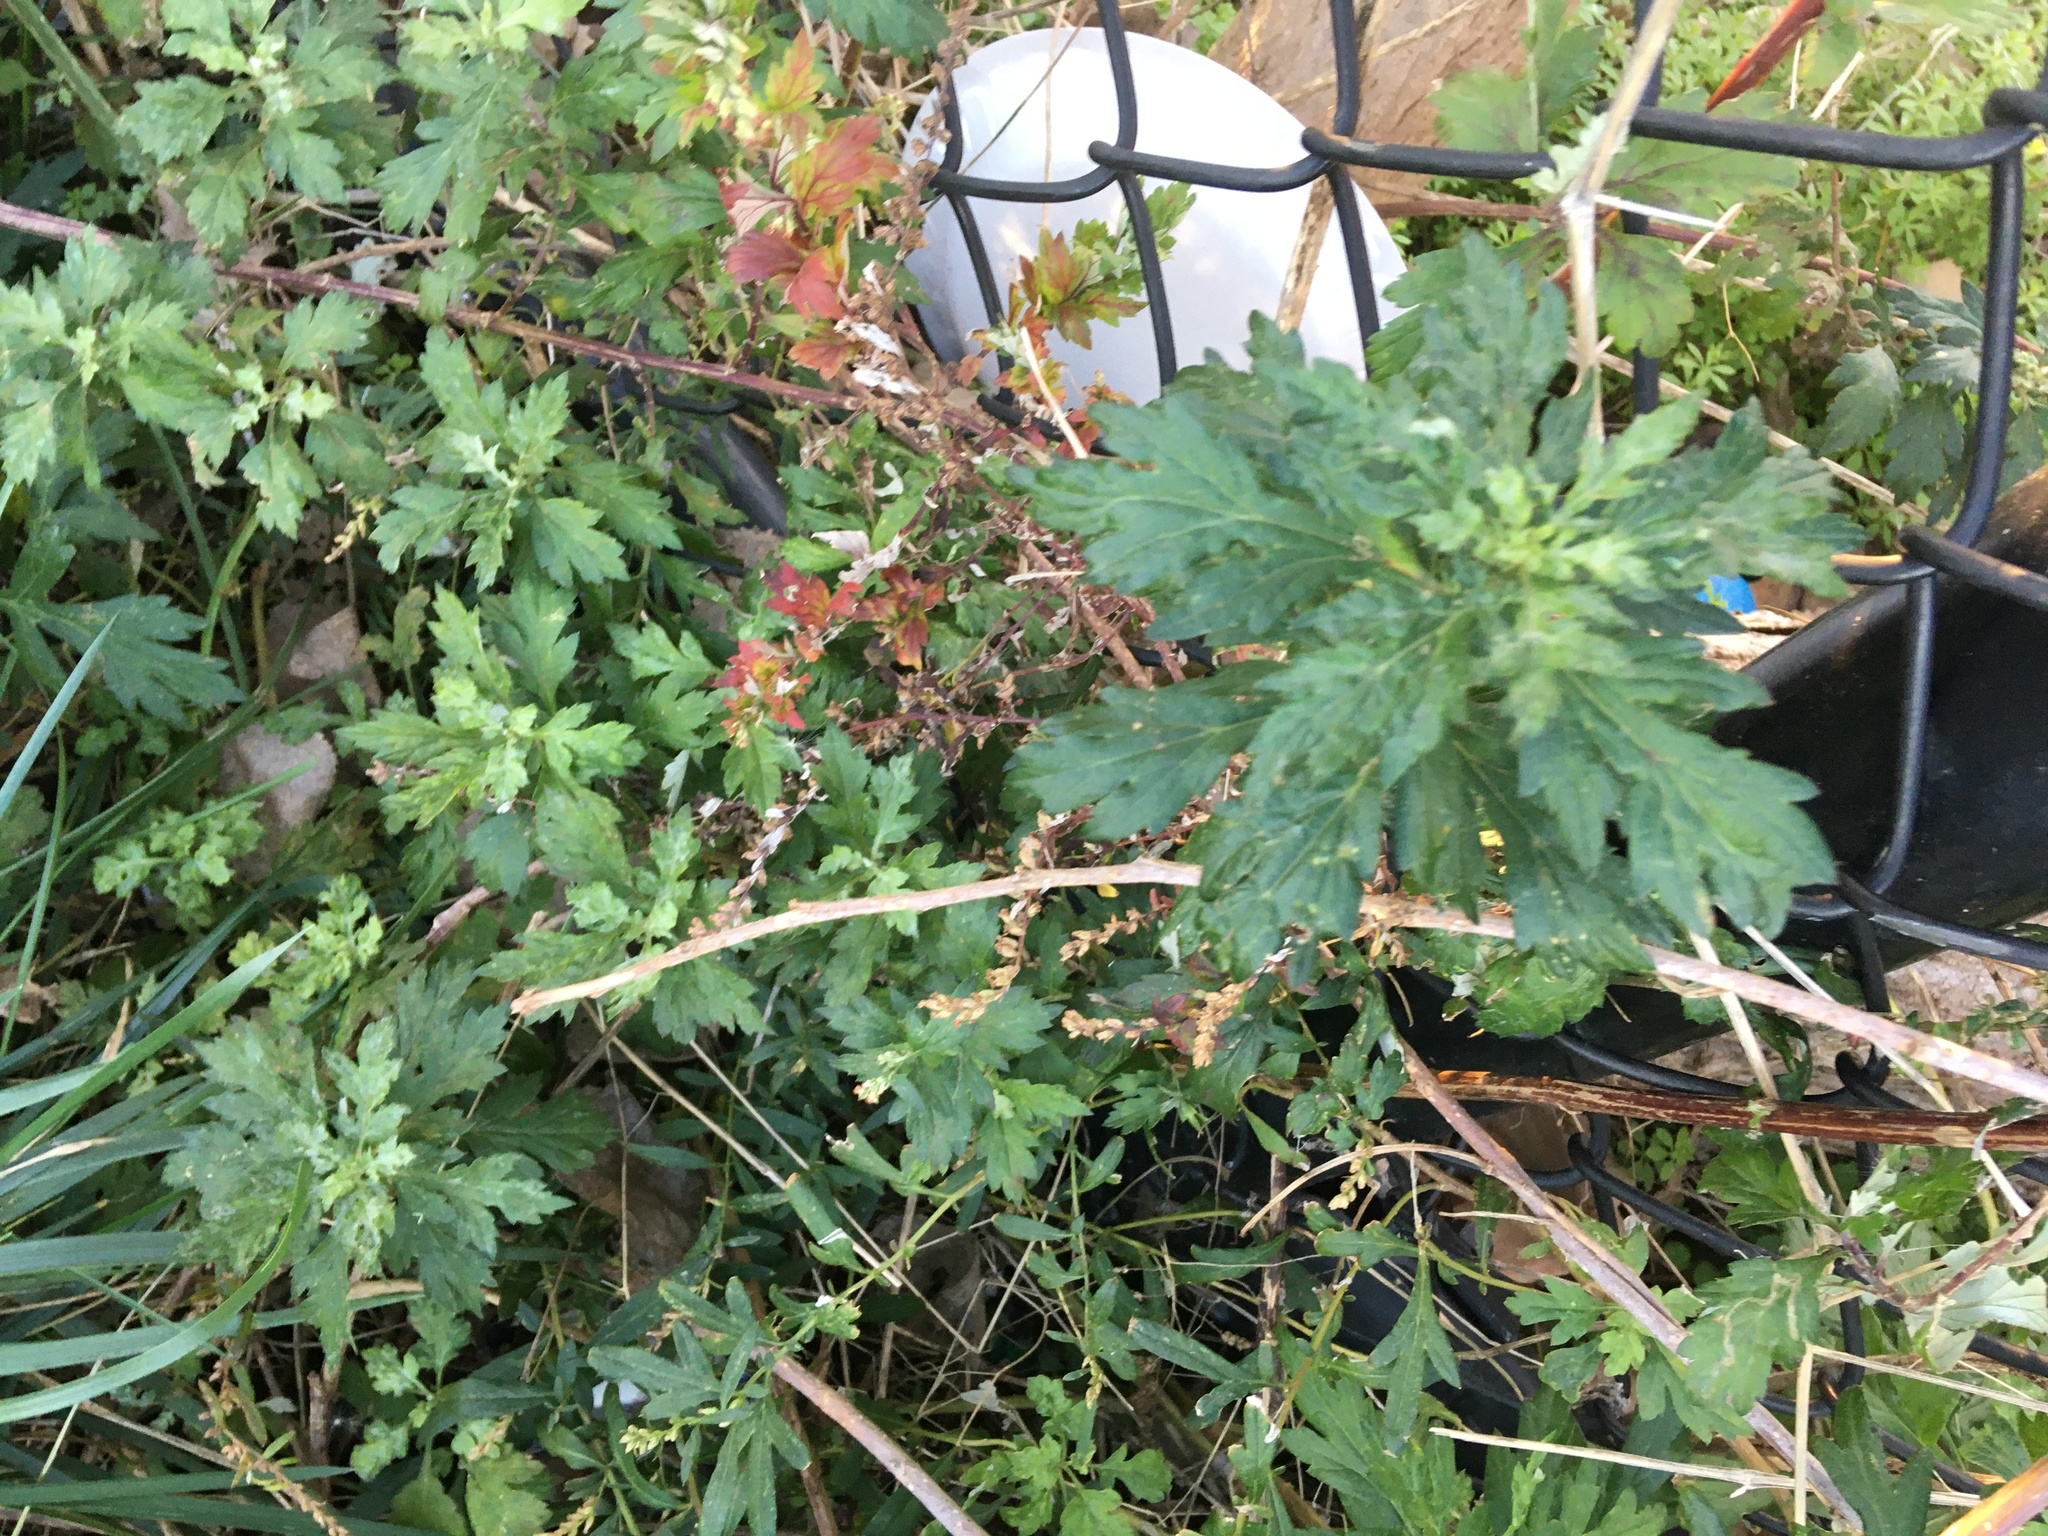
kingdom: Plantae
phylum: Tracheophyta
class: Magnoliopsida
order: Asterales
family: Asteraceae
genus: Artemisia
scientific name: Artemisia vulgaris
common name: Mugwort
